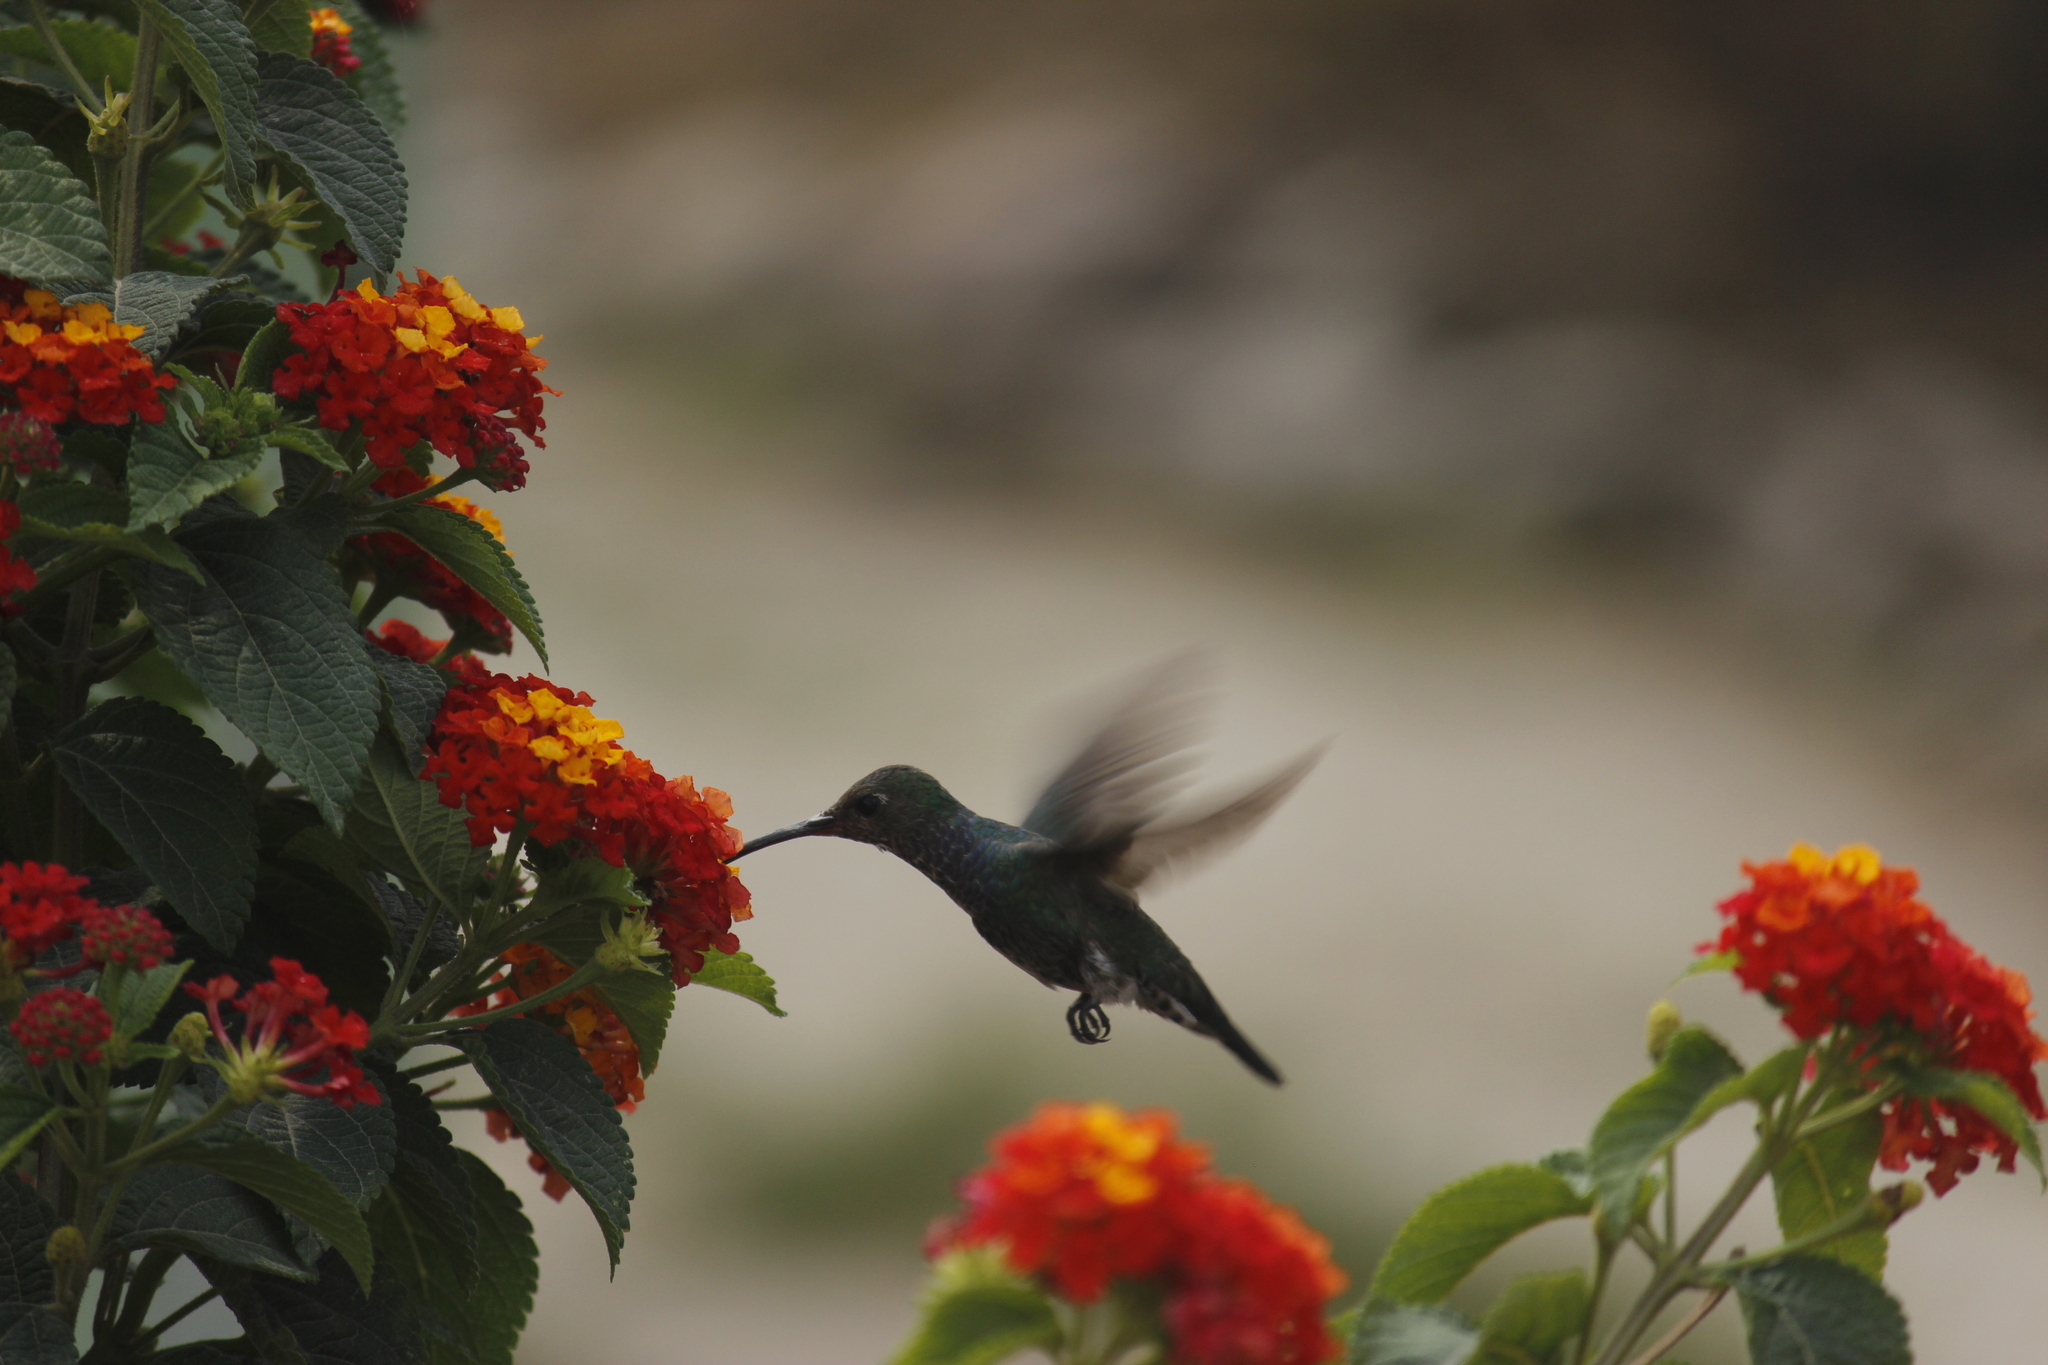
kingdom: Animalia
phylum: Chordata
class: Aves
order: Apodiformes
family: Trochilidae
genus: Chionomesa
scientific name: Chionomesa lactea
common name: Sapphire-spangled emerald
